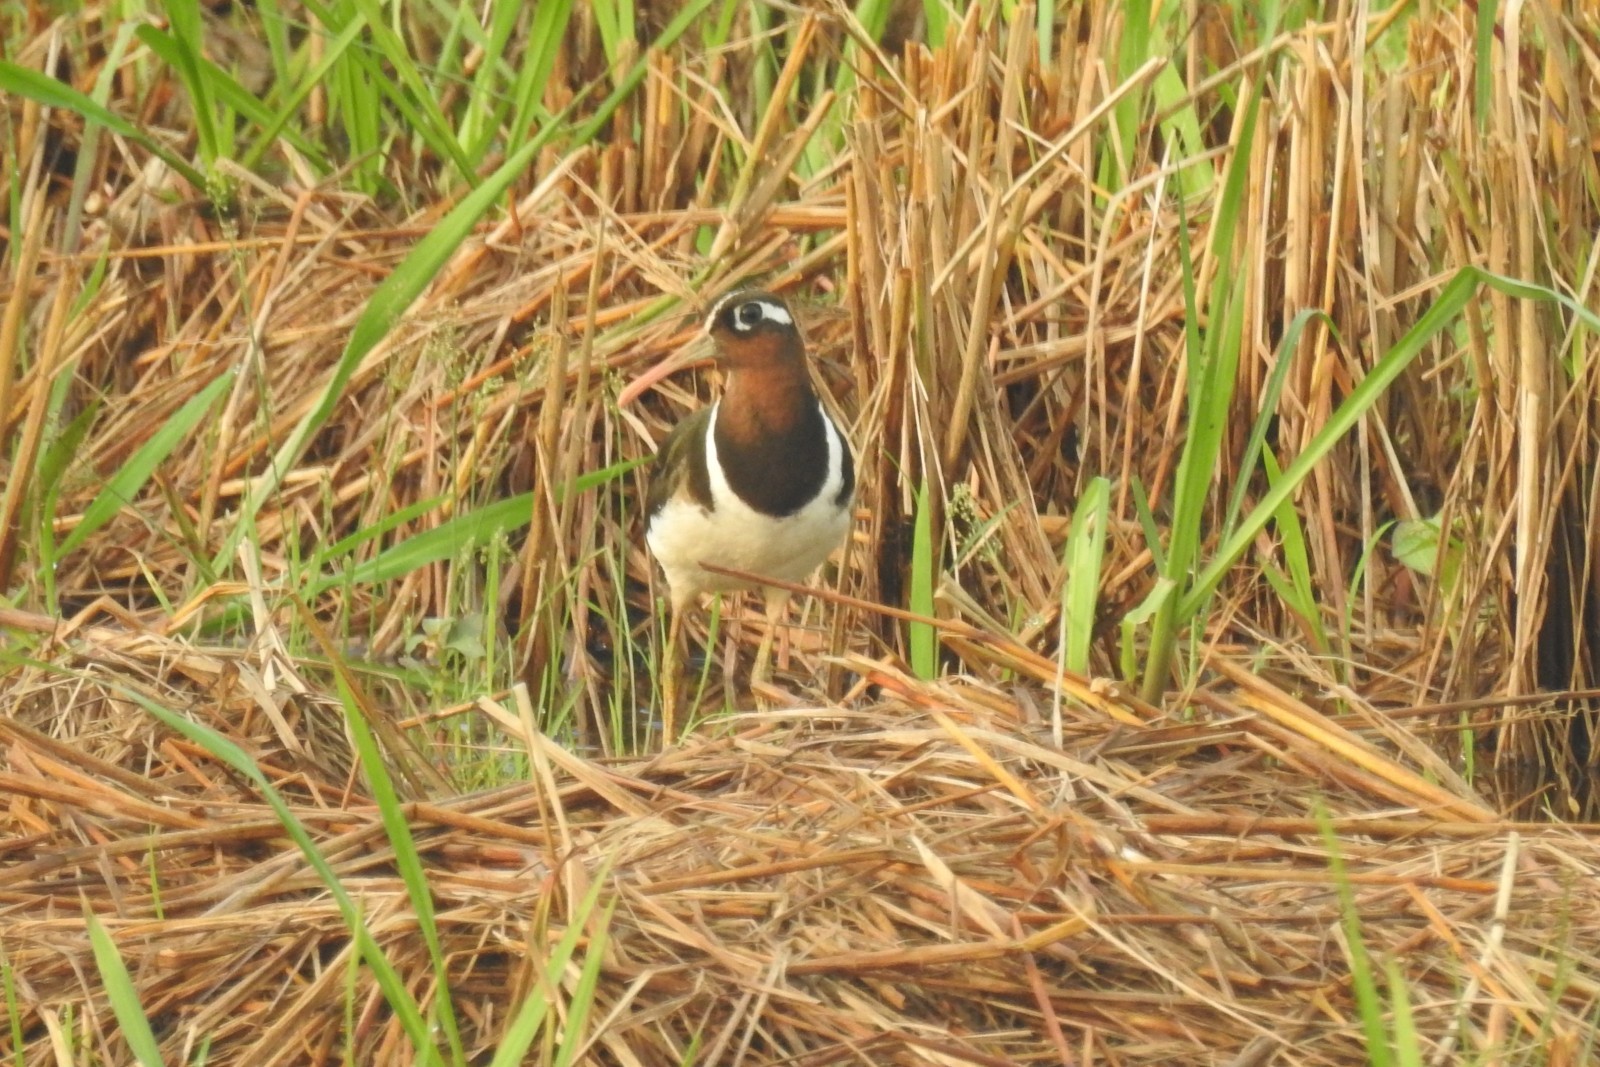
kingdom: Animalia
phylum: Chordata
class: Aves
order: Charadriiformes
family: Rostratulidae
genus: Rostratula
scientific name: Rostratula benghalensis
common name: Greater painted-snipe
